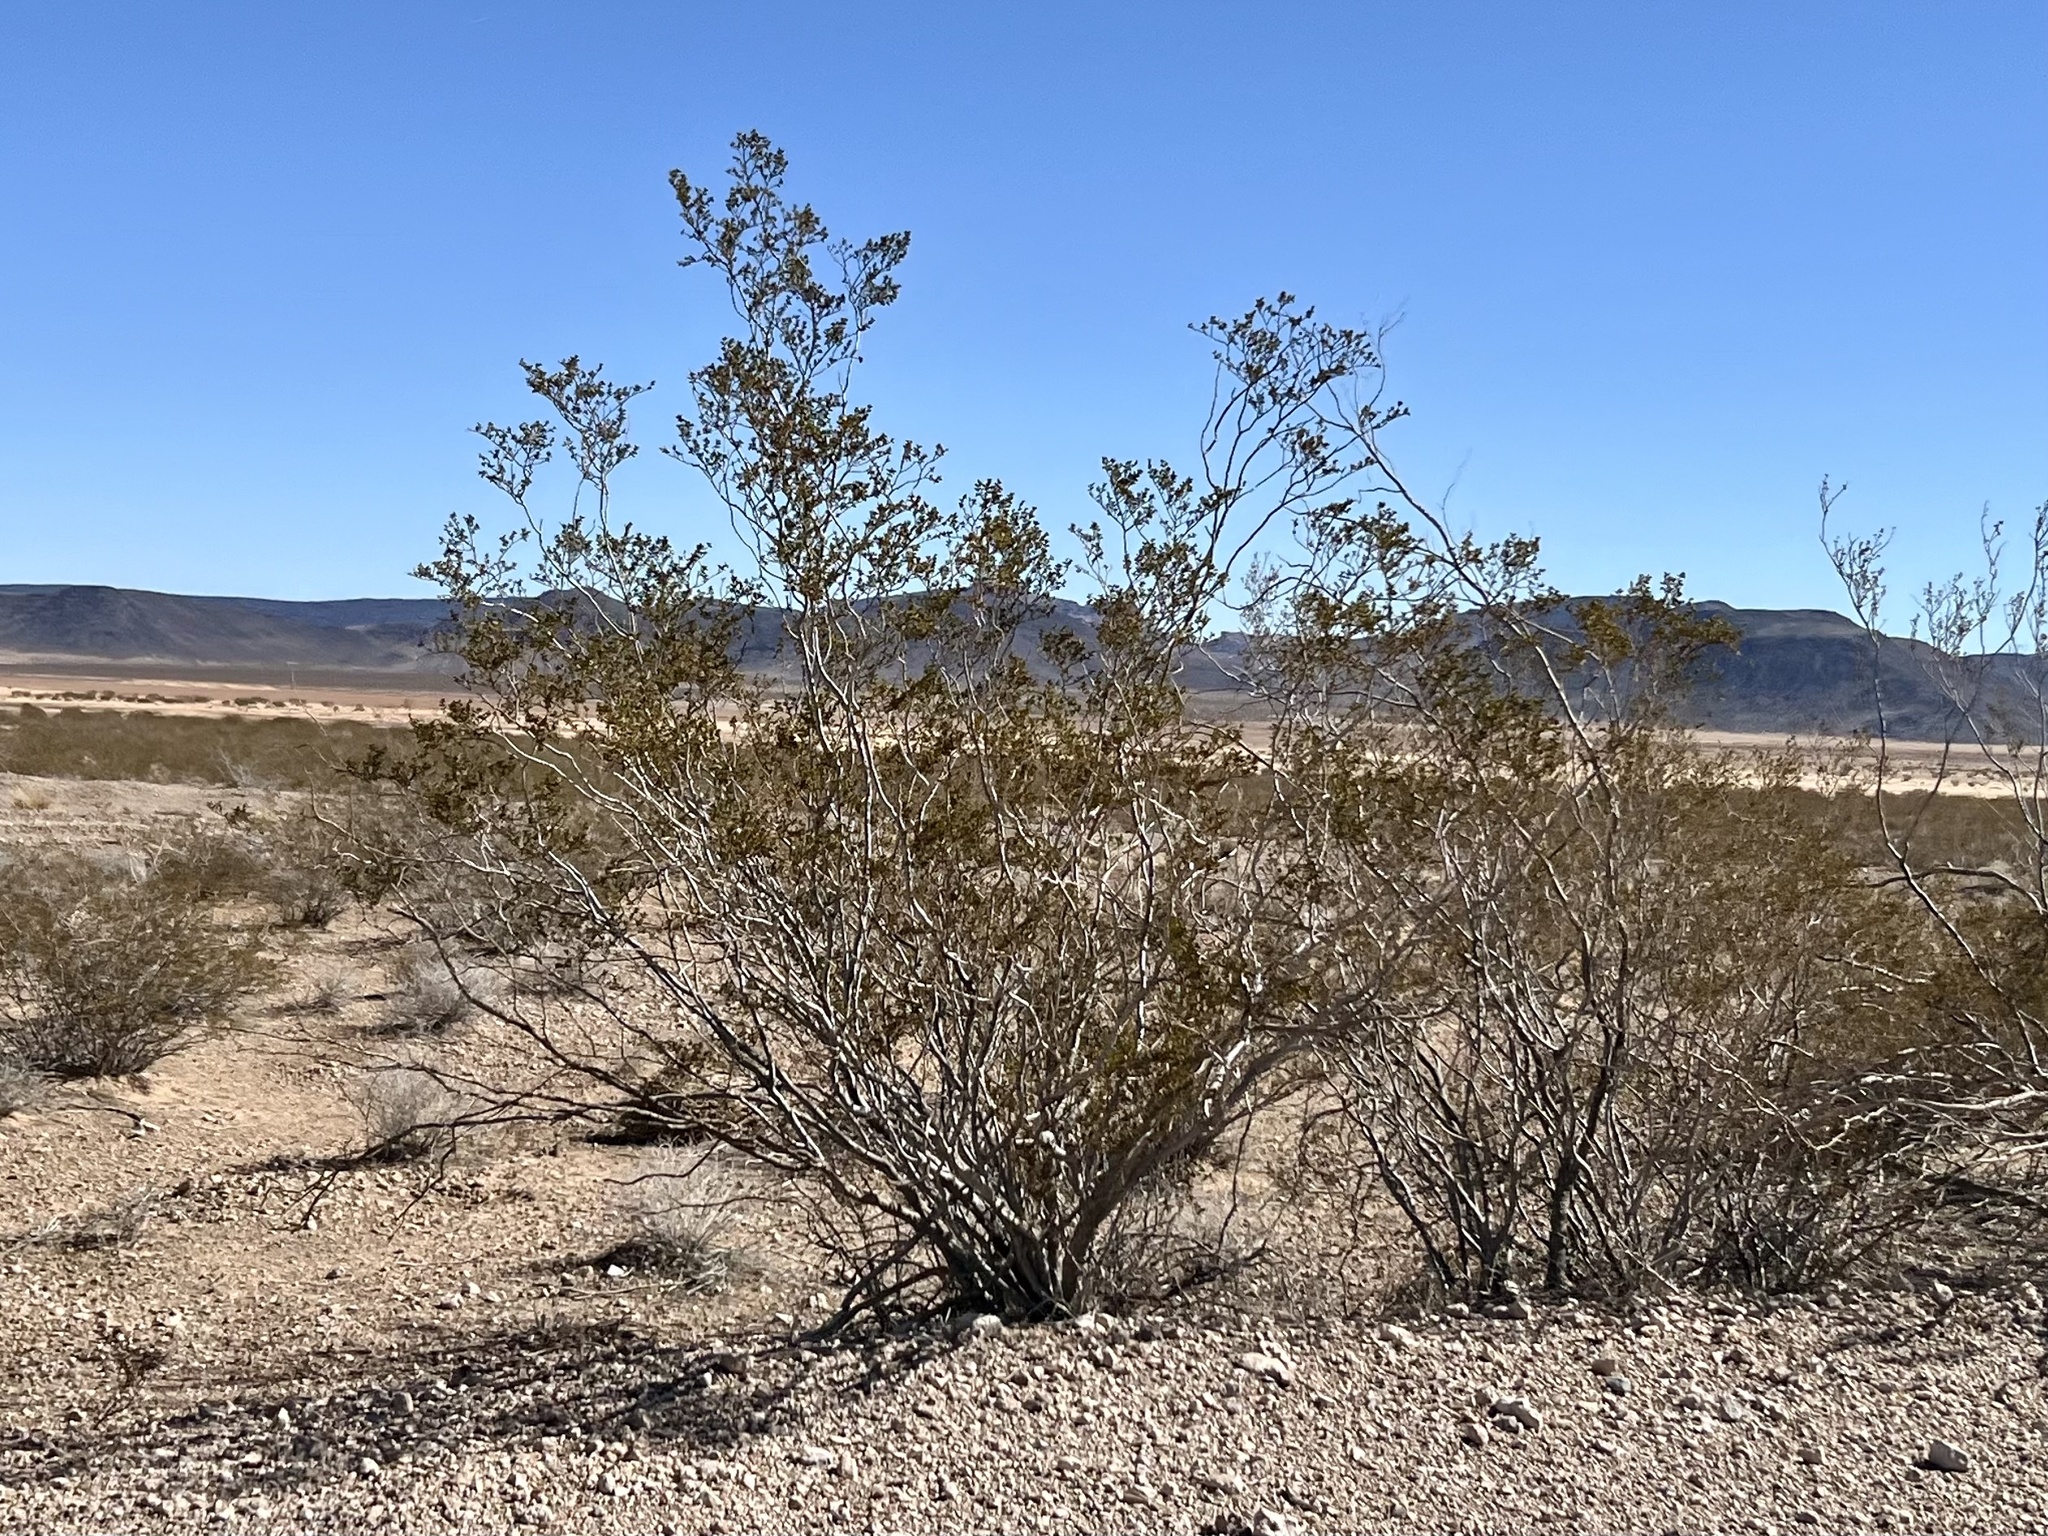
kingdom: Plantae
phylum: Tracheophyta
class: Magnoliopsida
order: Zygophyllales
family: Zygophyllaceae
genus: Larrea
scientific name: Larrea tridentata
